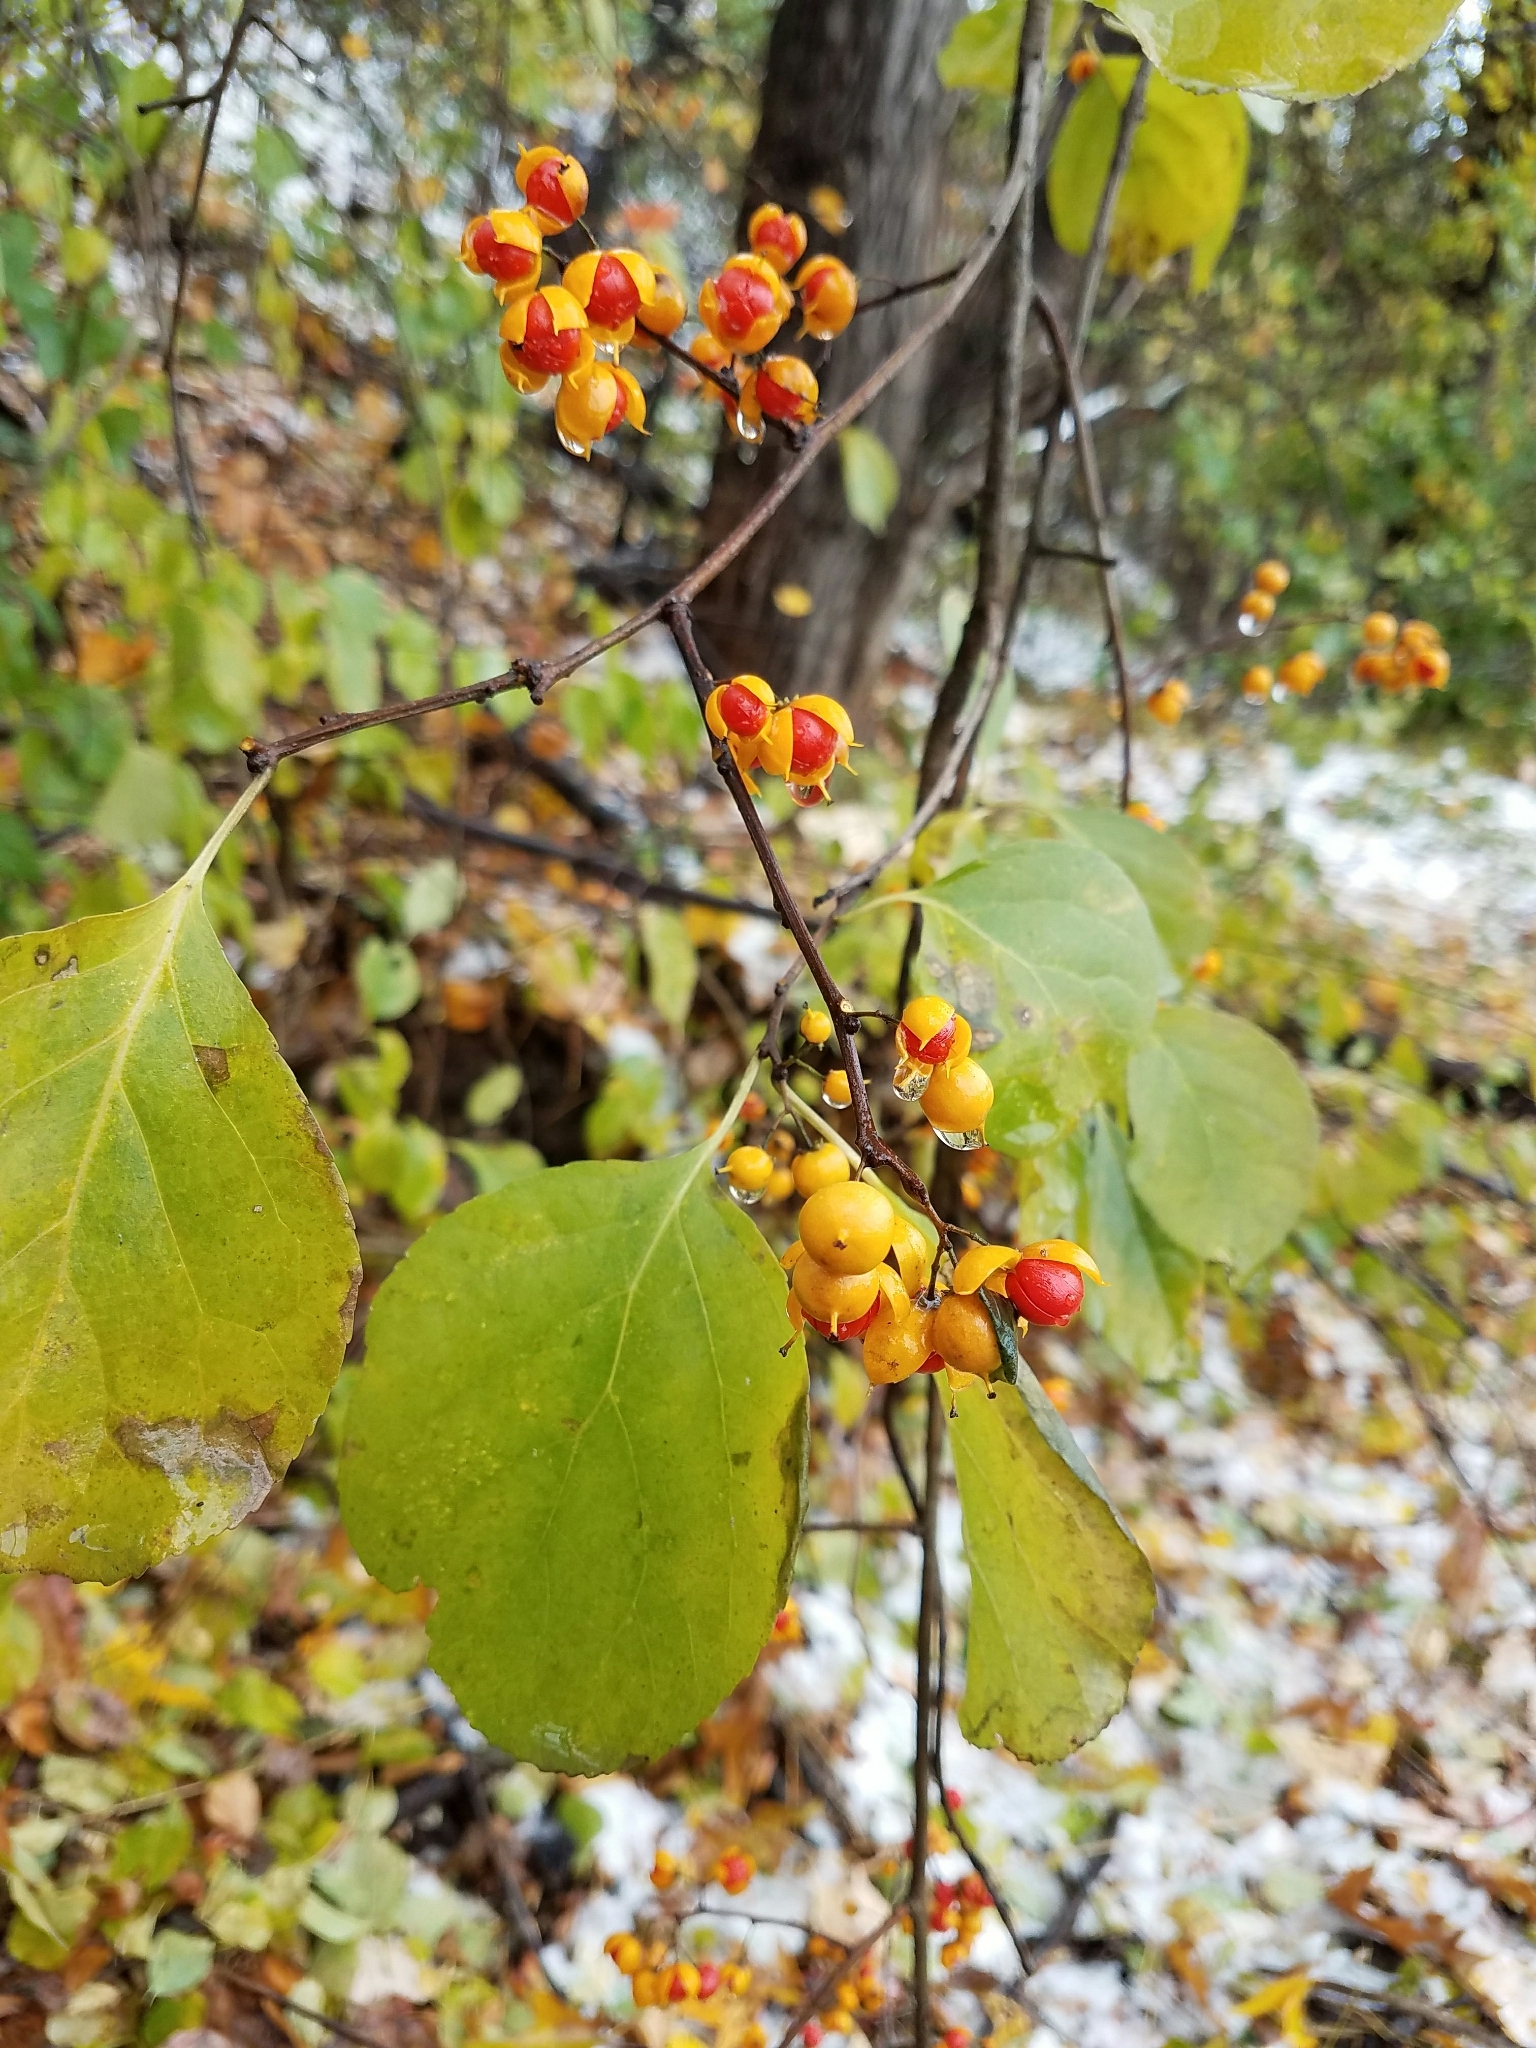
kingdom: Plantae
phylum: Tracheophyta
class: Magnoliopsida
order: Celastrales
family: Celastraceae
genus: Celastrus
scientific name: Celastrus orbiculatus
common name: Oriental bittersweet
